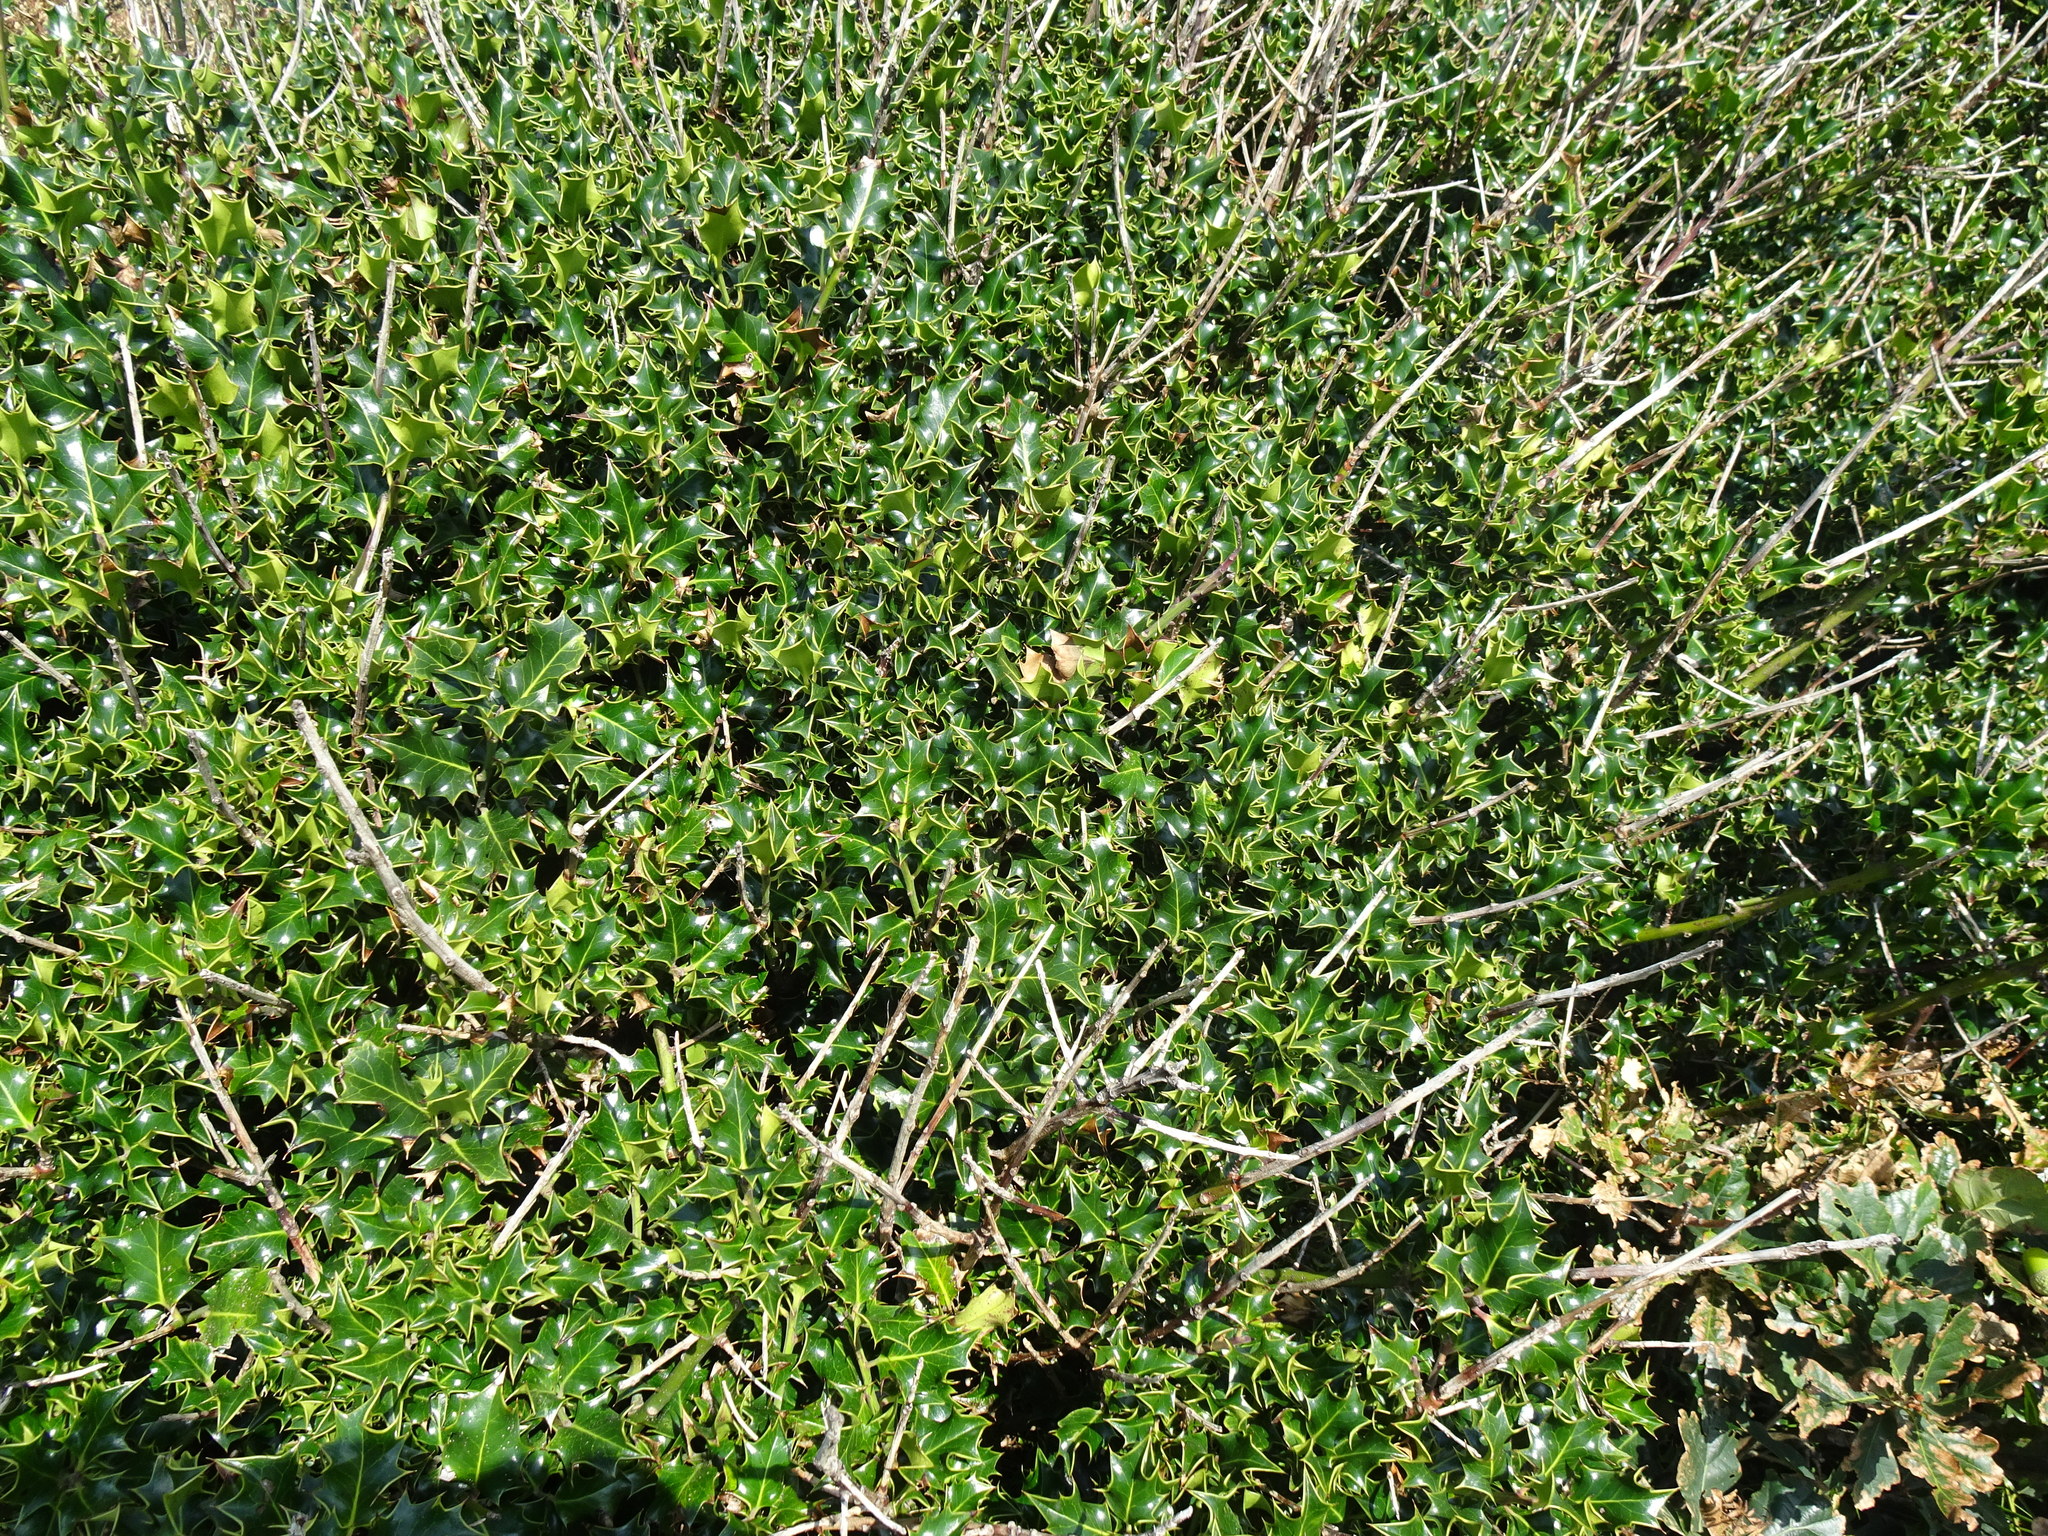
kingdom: Plantae
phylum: Tracheophyta
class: Magnoliopsida
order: Aquifoliales
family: Aquifoliaceae
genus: Ilex
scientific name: Ilex aquifolium
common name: English holly
